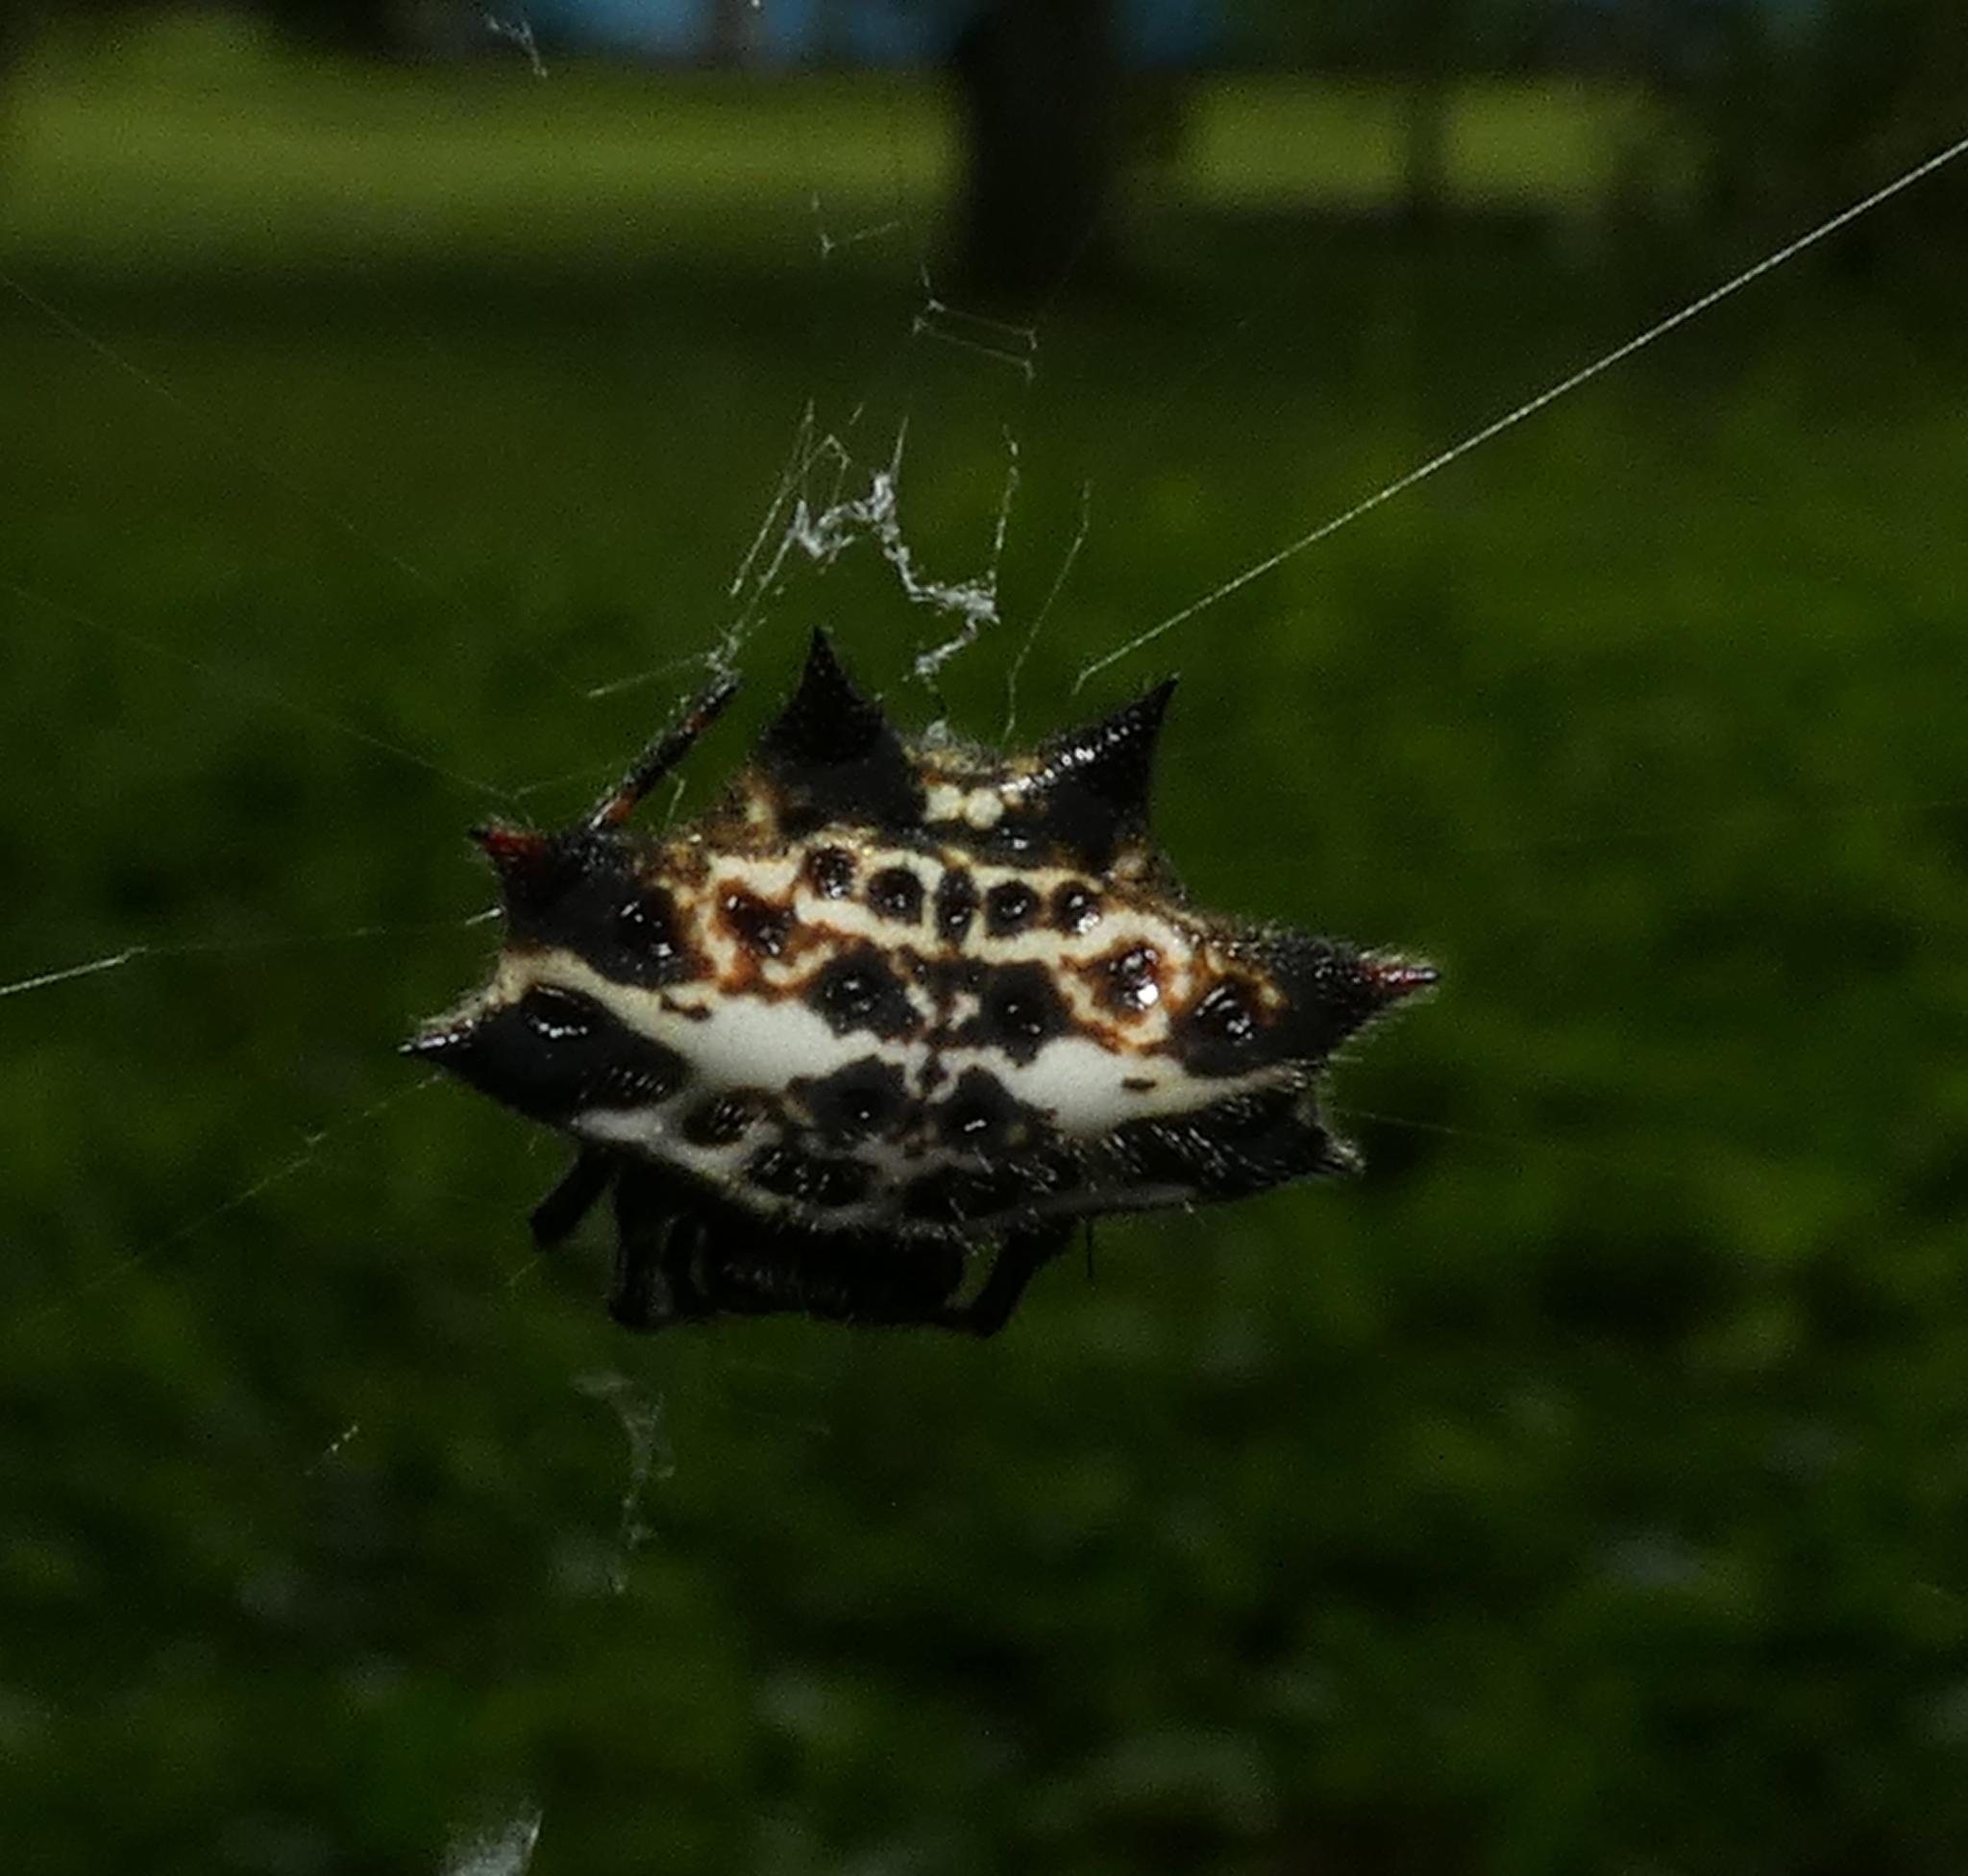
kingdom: Animalia
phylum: Arthropoda
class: Arachnida
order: Araneae
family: Araneidae
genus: Gasteracantha
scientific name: Gasteracantha cancriformis
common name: Orb weavers
